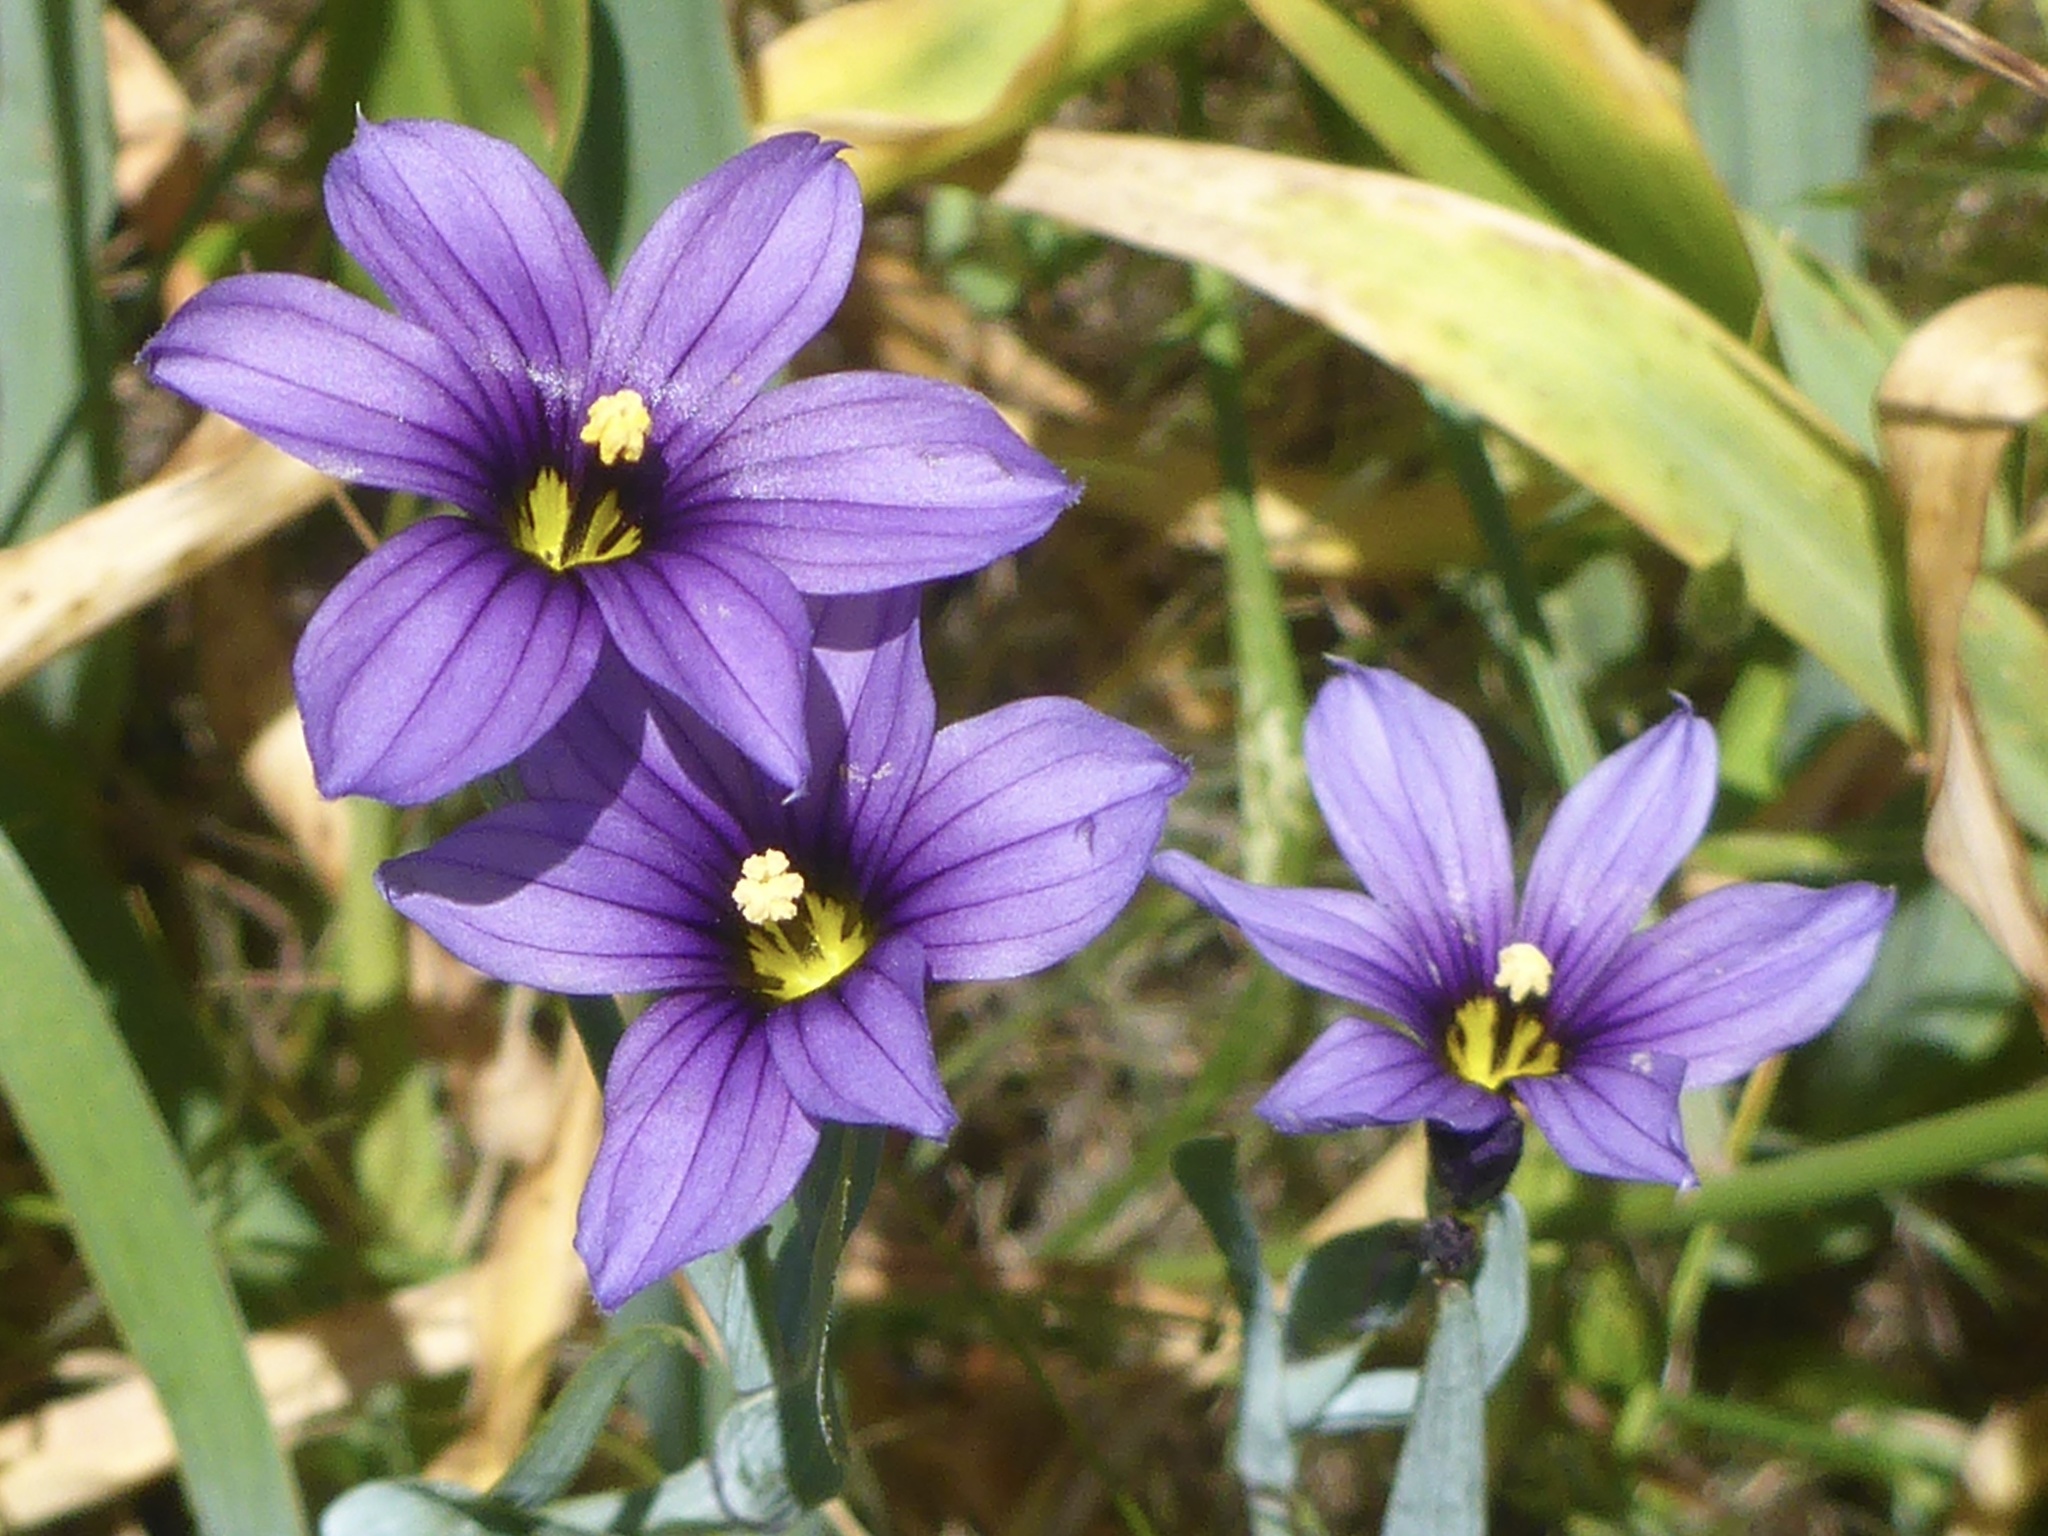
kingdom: Plantae
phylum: Tracheophyta
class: Liliopsida
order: Asparagales
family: Iridaceae
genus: Sisyrinchium
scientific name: Sisyrinchium bellum
